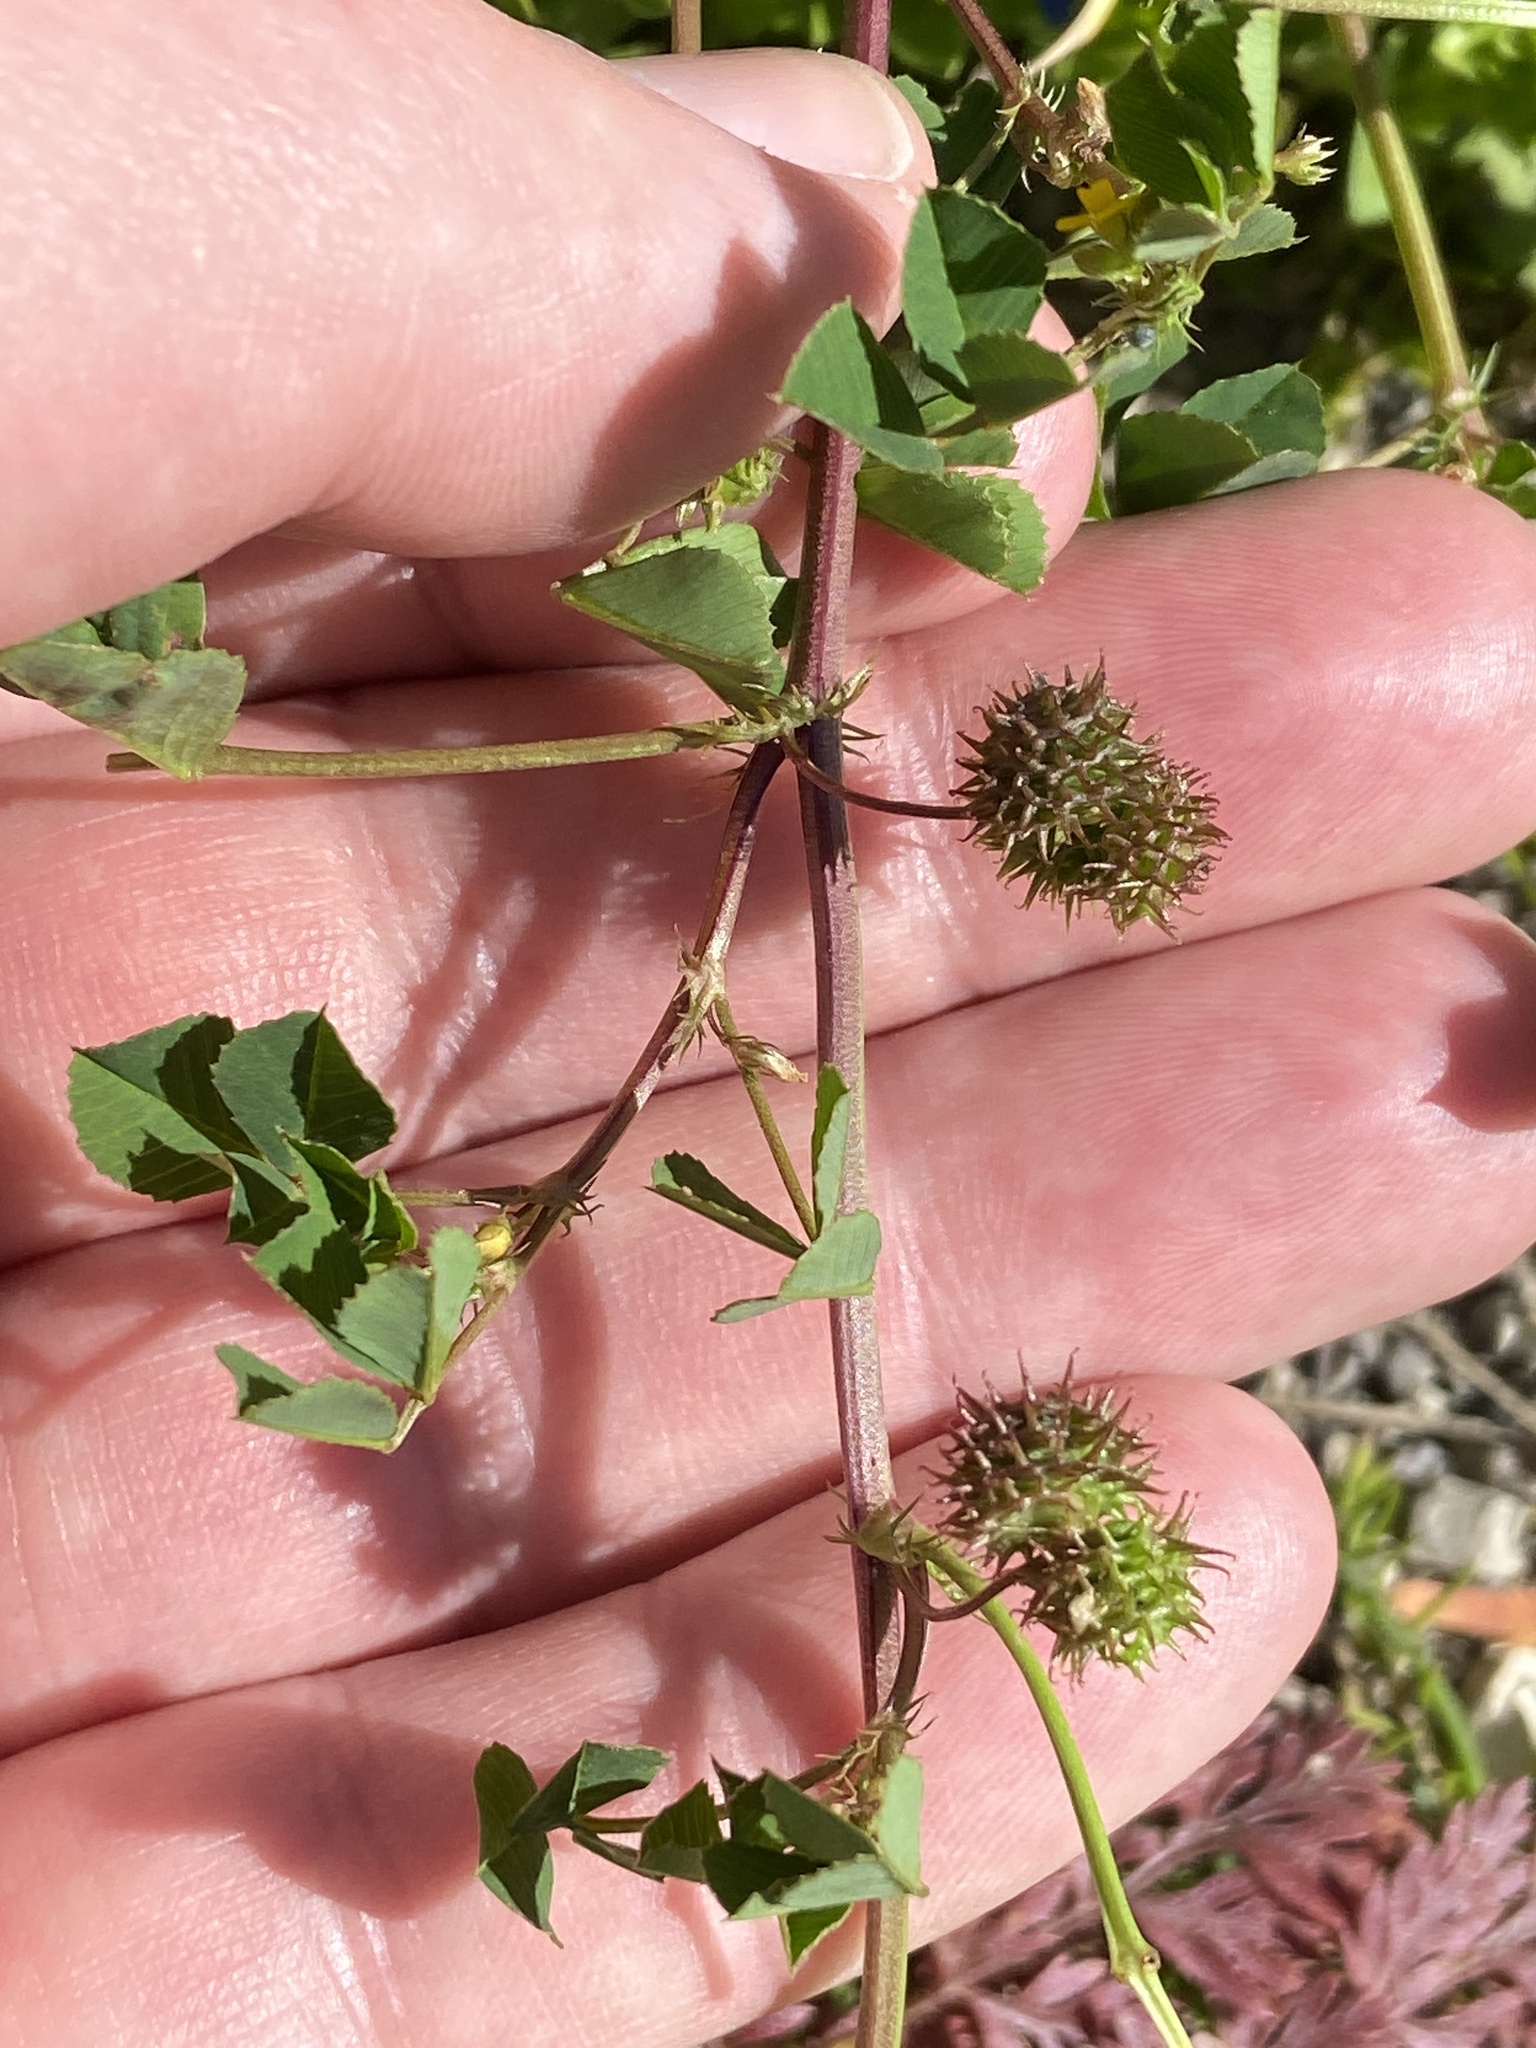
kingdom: Plantae
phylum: Tracheophyta
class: Magnoliopsida
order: Fabales
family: Fabaceae
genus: Medicago
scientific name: Medicago polymorpha
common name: Burclover
